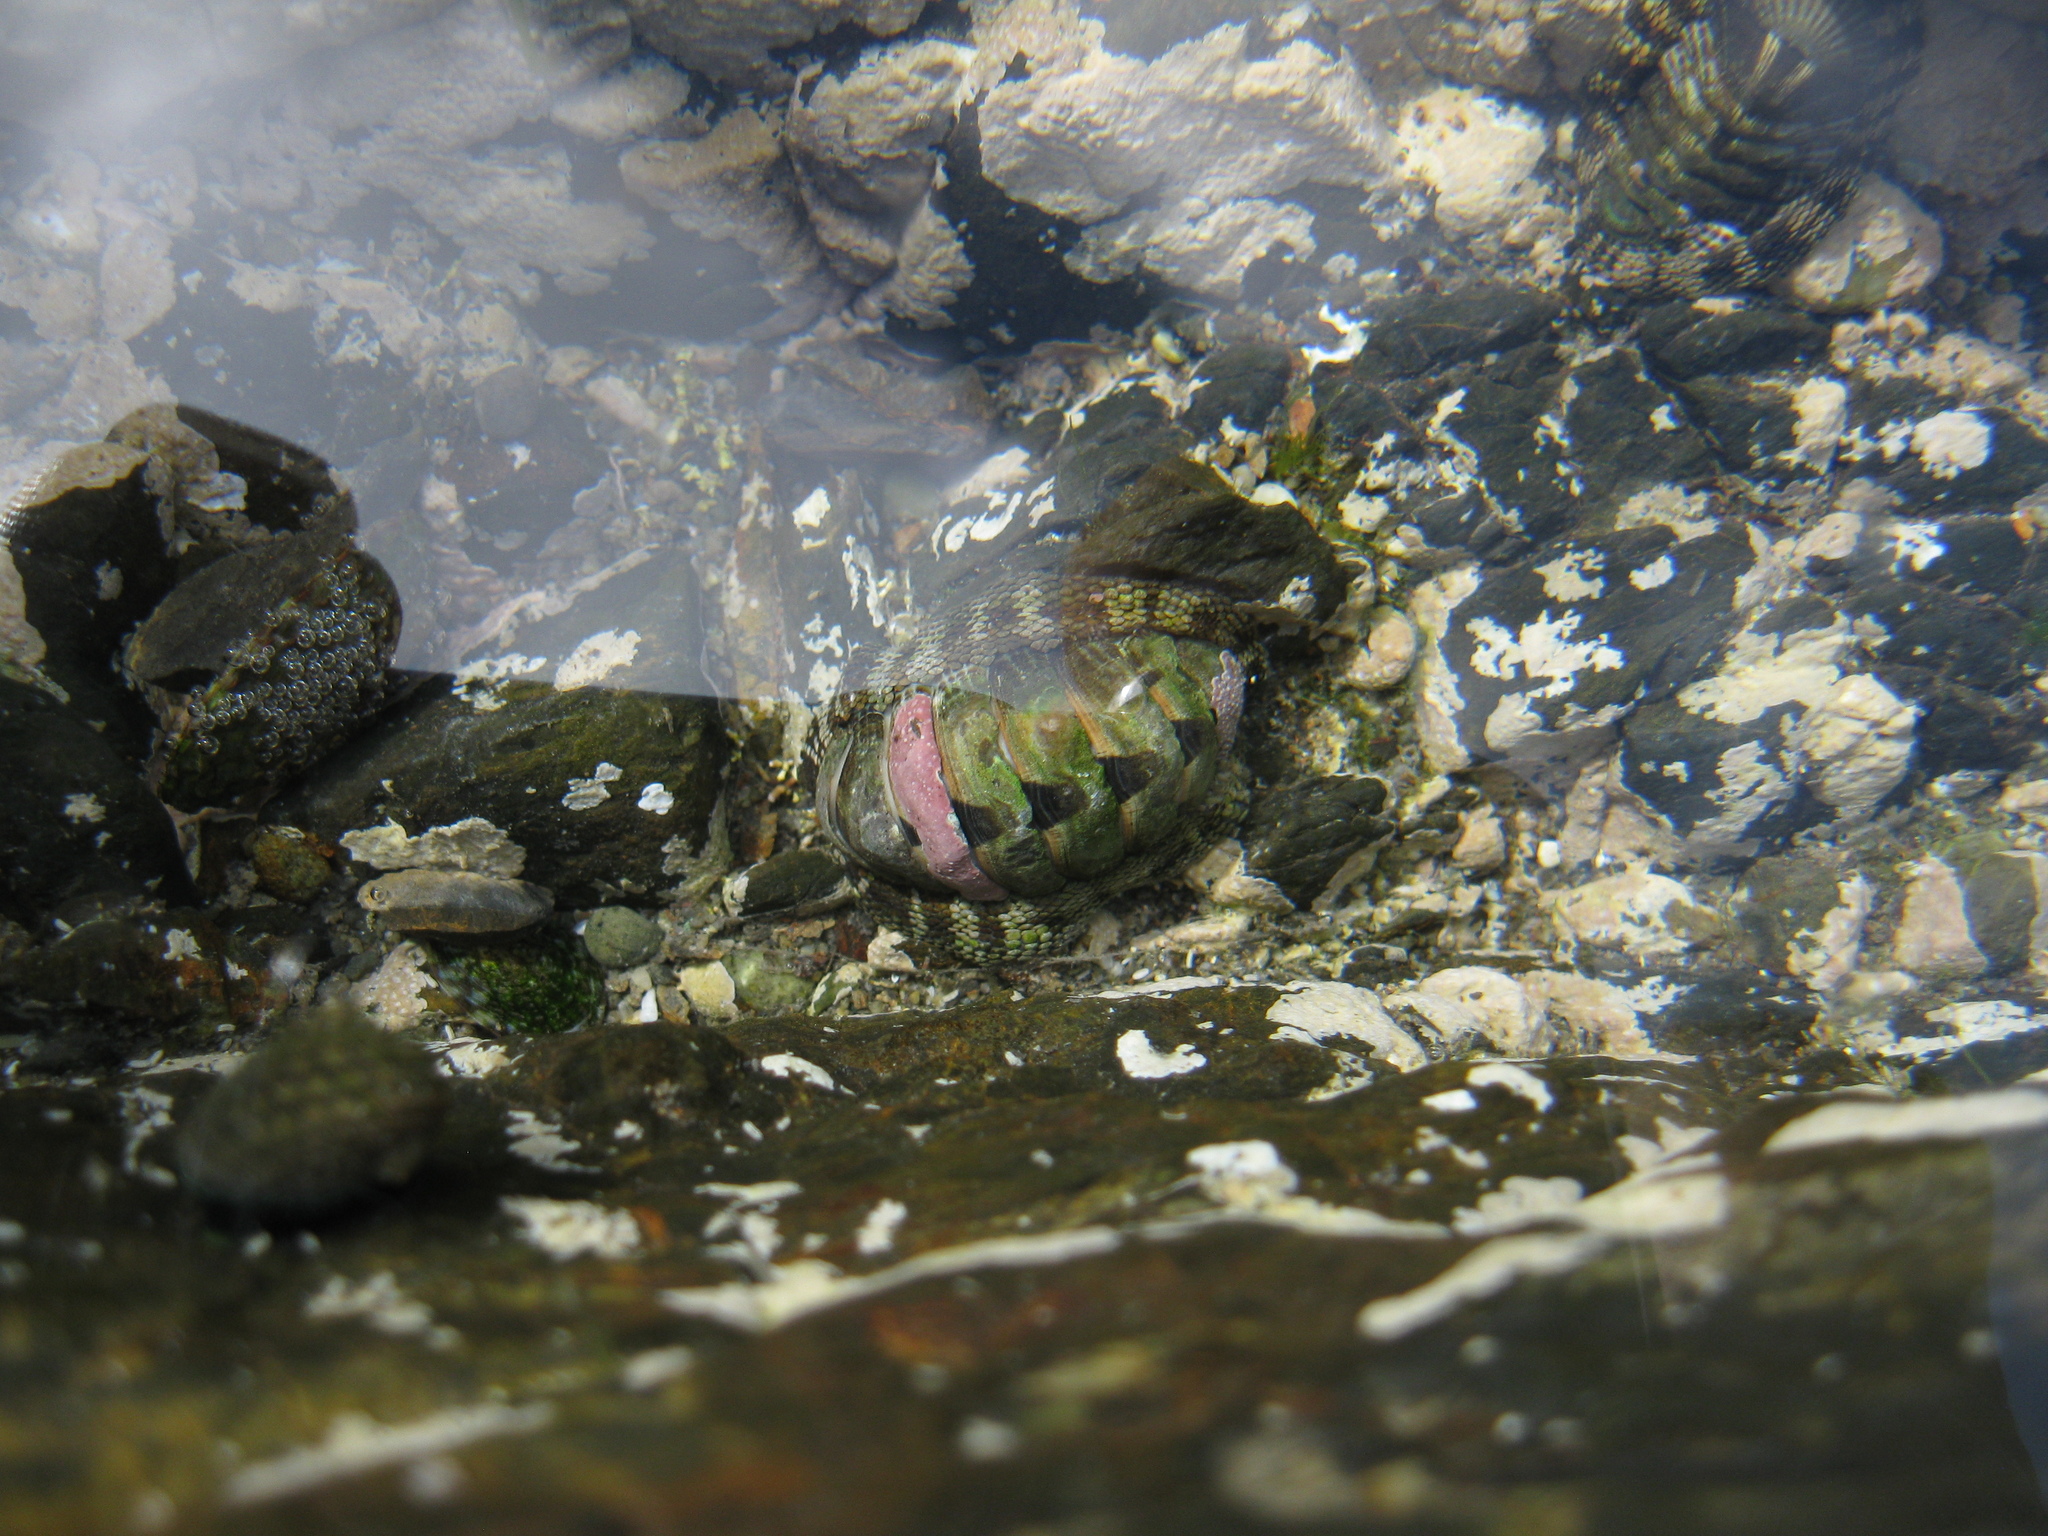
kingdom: Animalia
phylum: Mollusca
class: Polyplacophora
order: Chitonida
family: Chitonidae
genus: Sypharochiton
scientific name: Sypharochiton pelliserpentis
